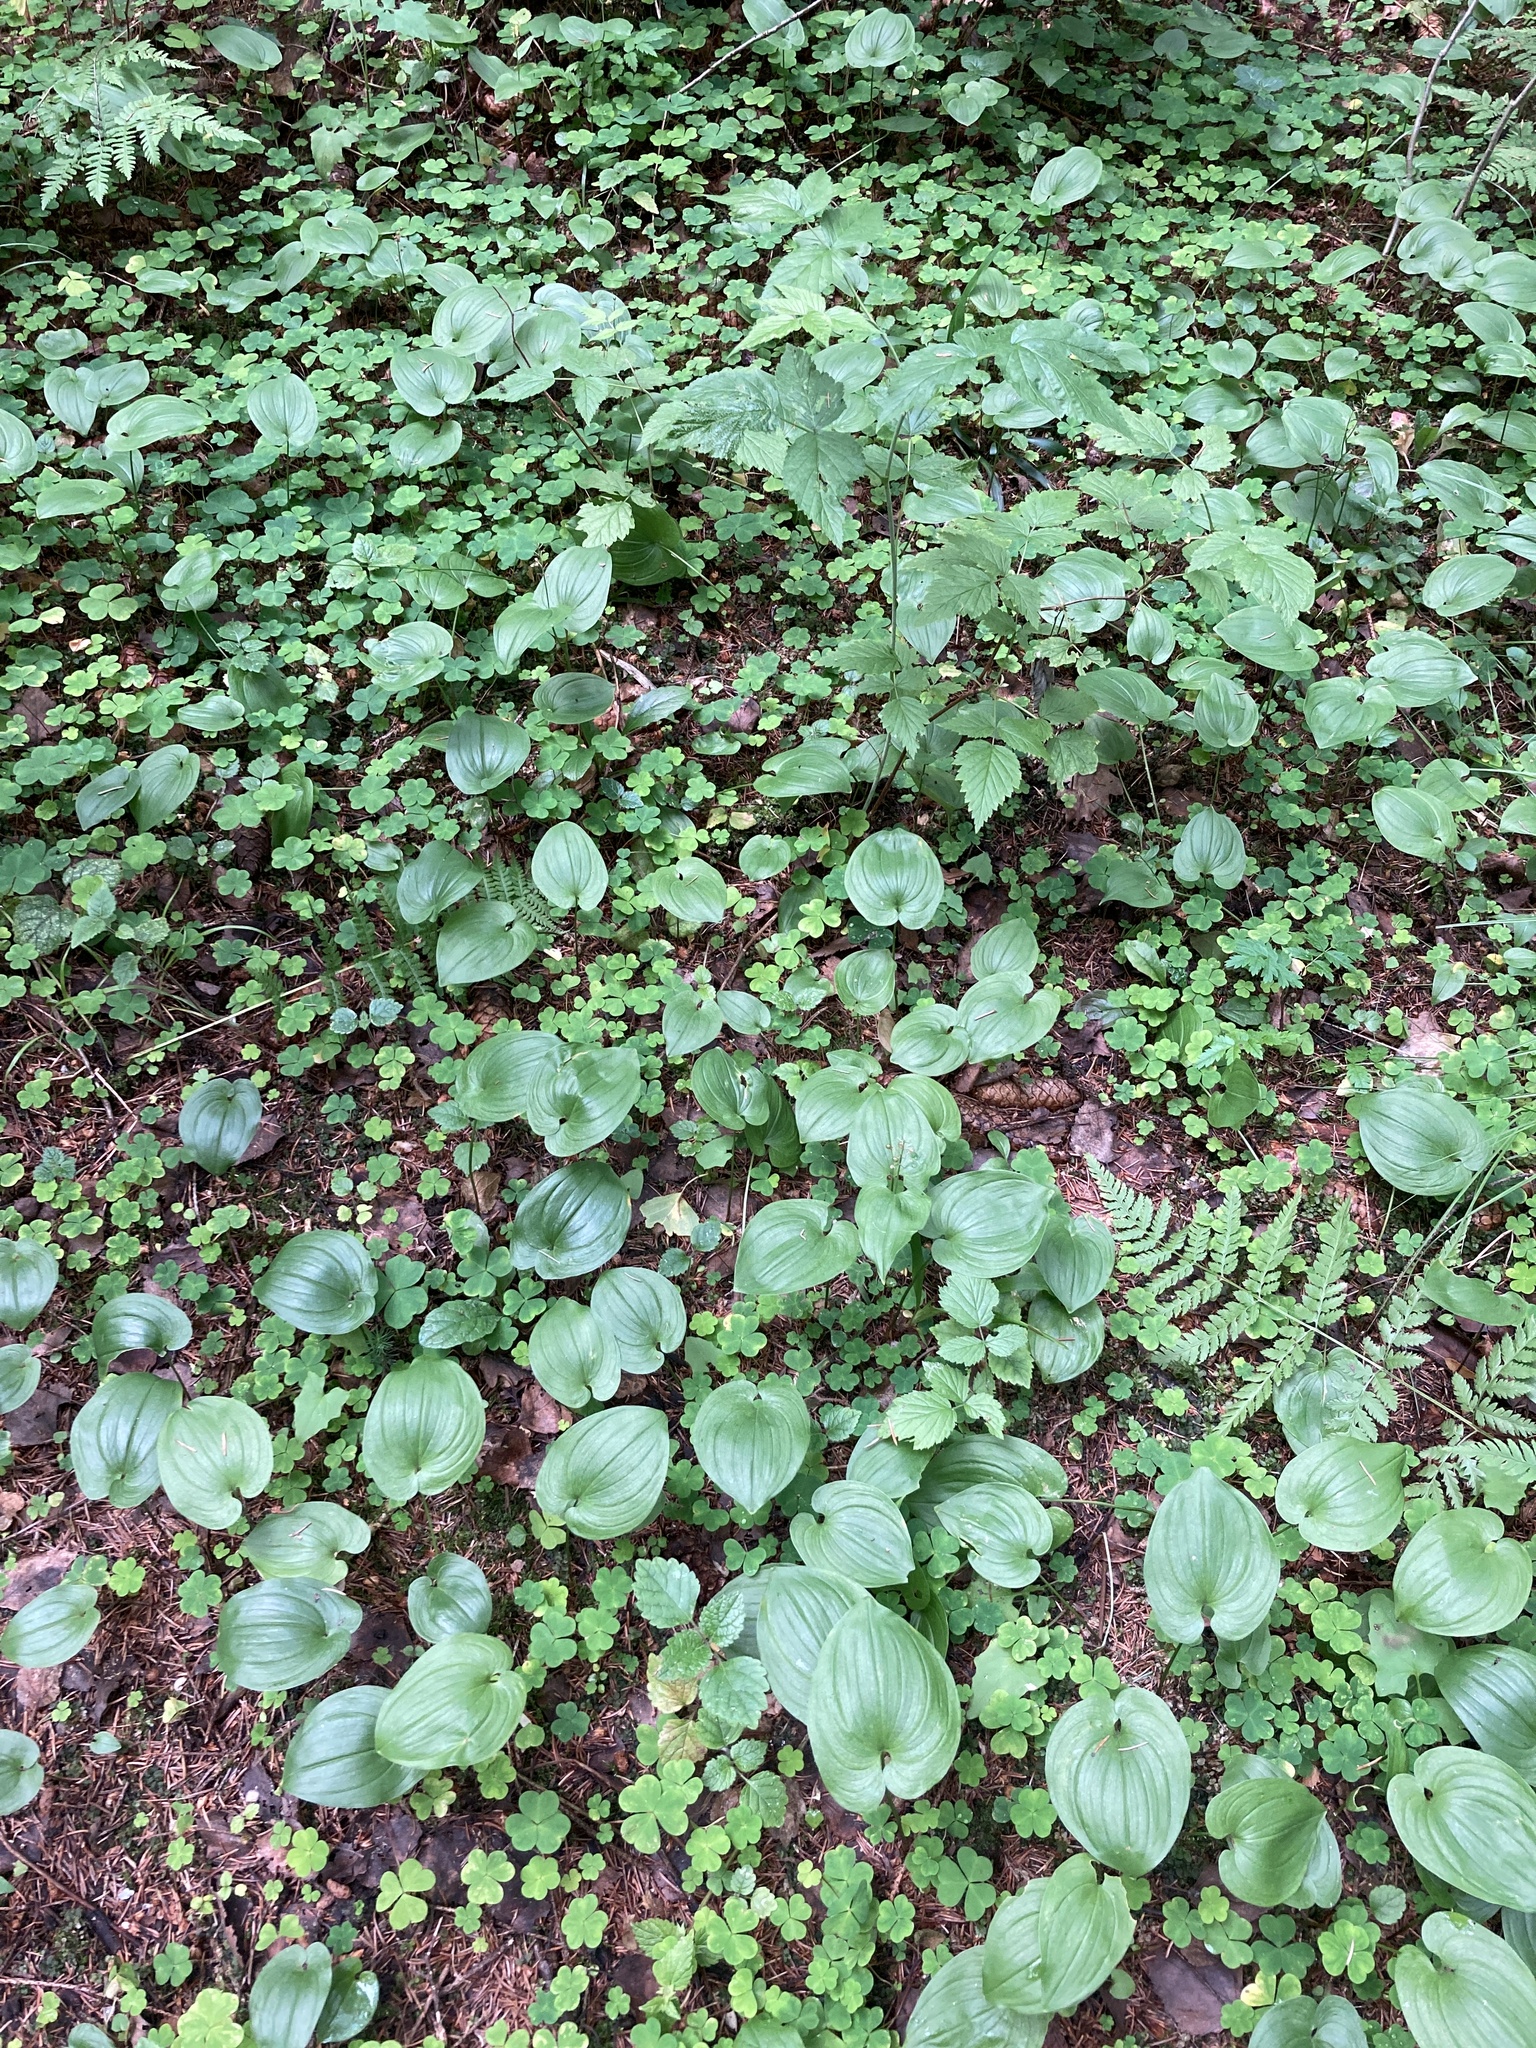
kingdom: Plantae
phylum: Tracheophyta
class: Liliopsida
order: Asparagales
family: Asparagaceae
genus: Maianthemum
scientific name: Maianthemum bifolium
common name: May lily
